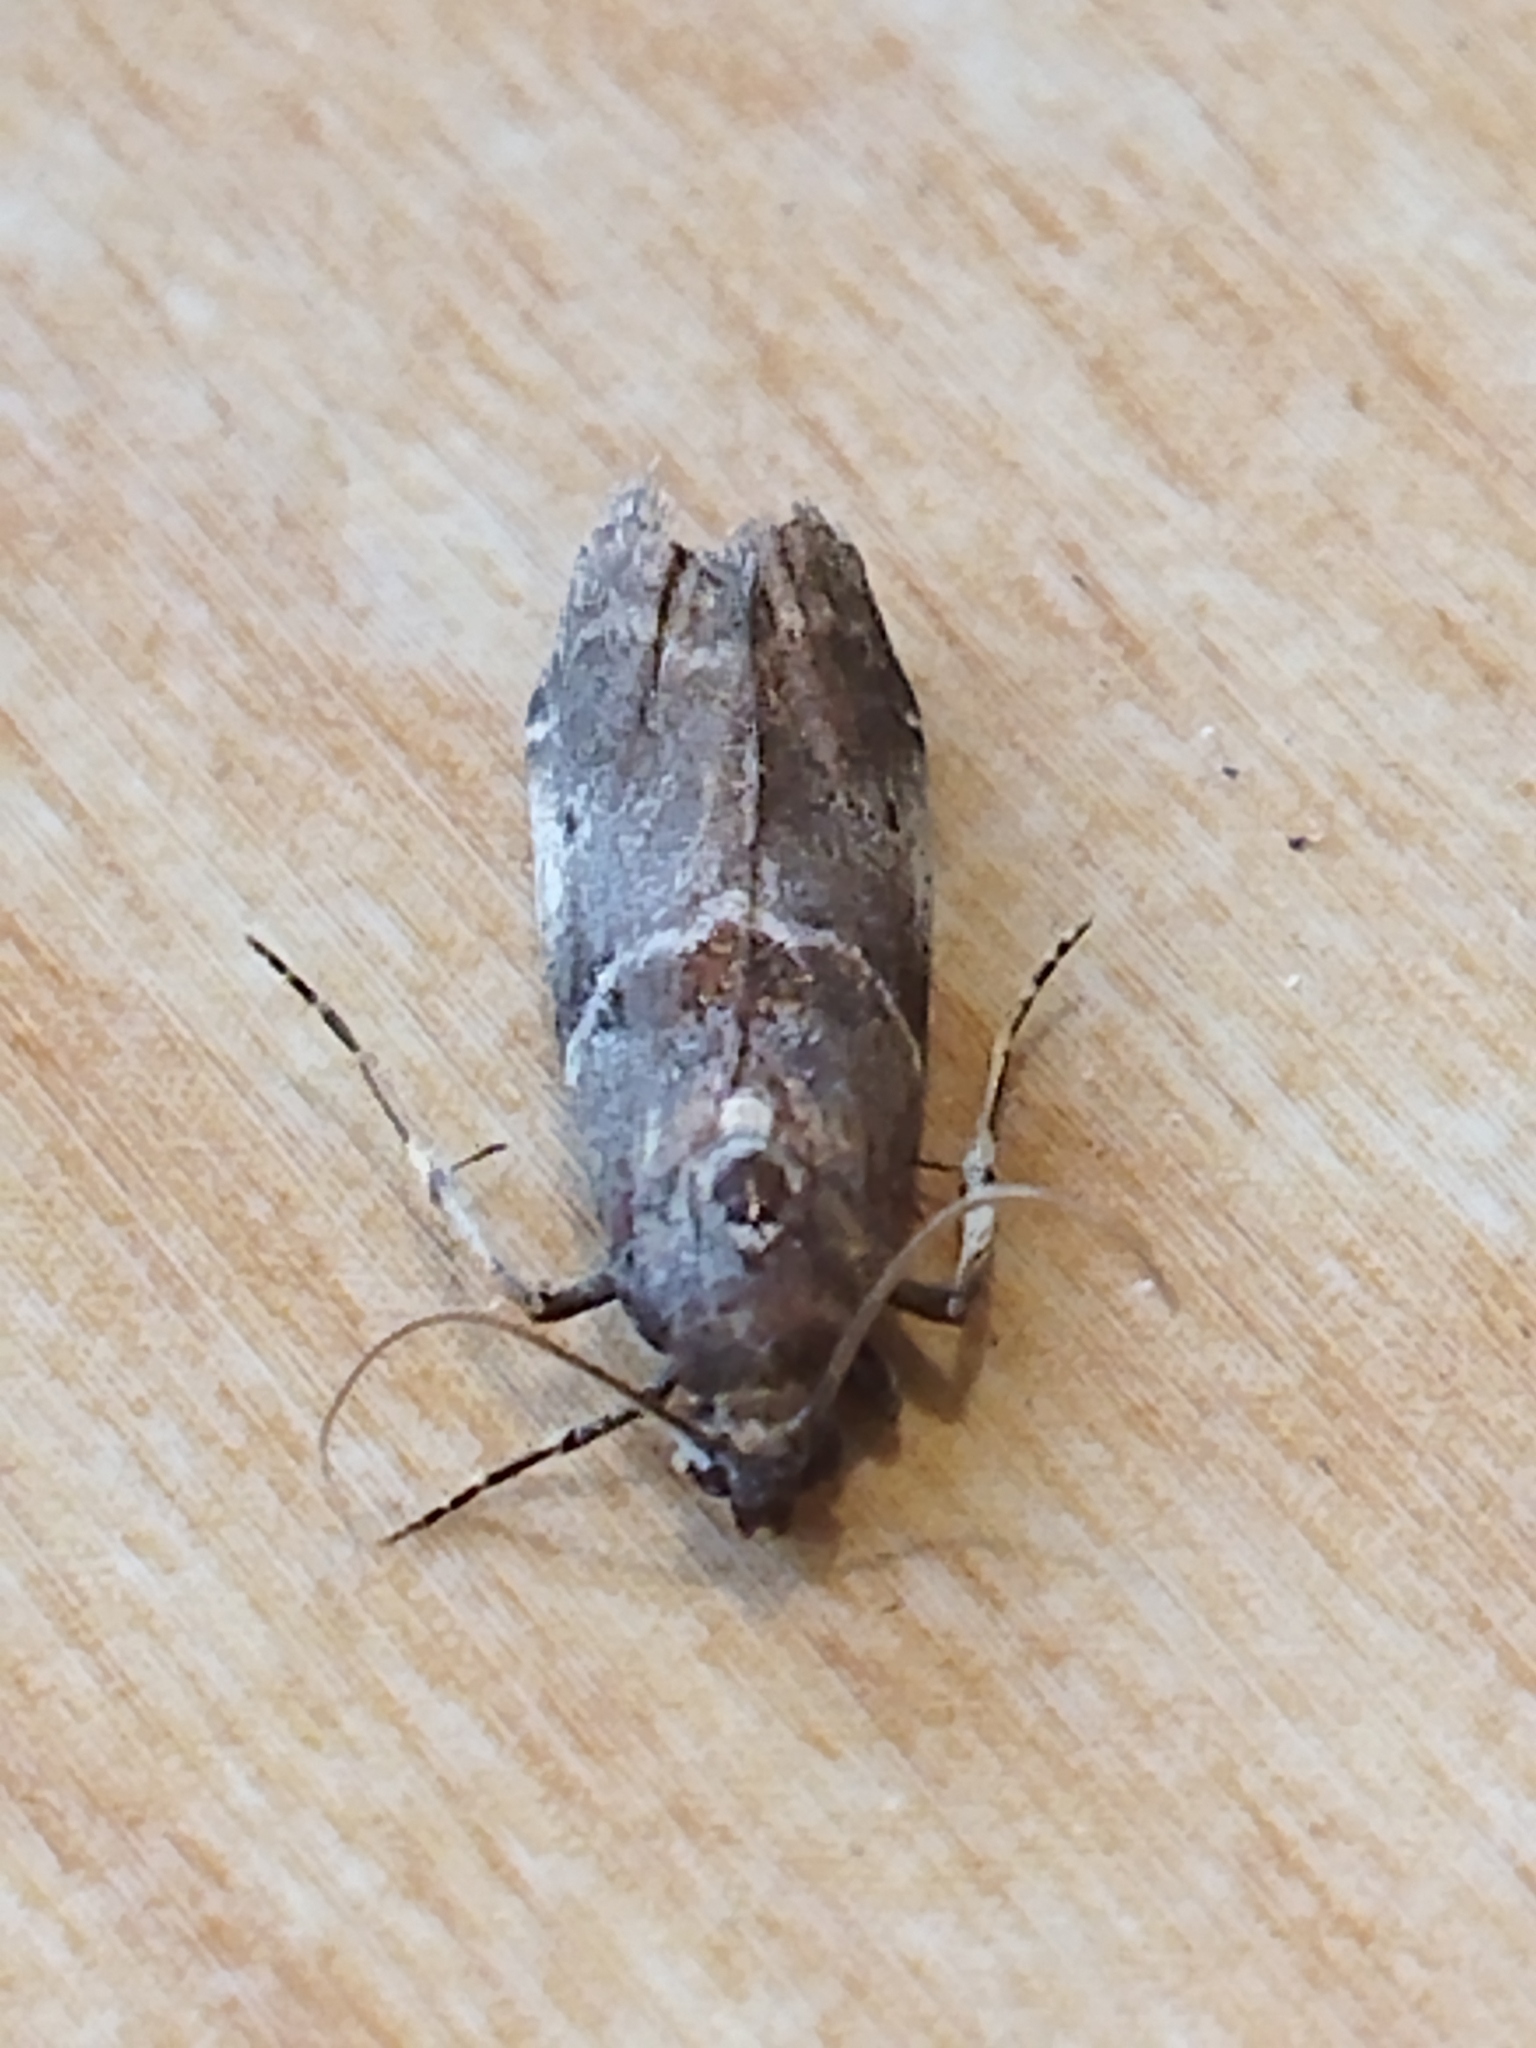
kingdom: Animalia
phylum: Arthropoda
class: Insecta
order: Lepidoptera
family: Pyralidae
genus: Acrobasis
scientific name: Acrobasis suavella
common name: Pyralid moth
